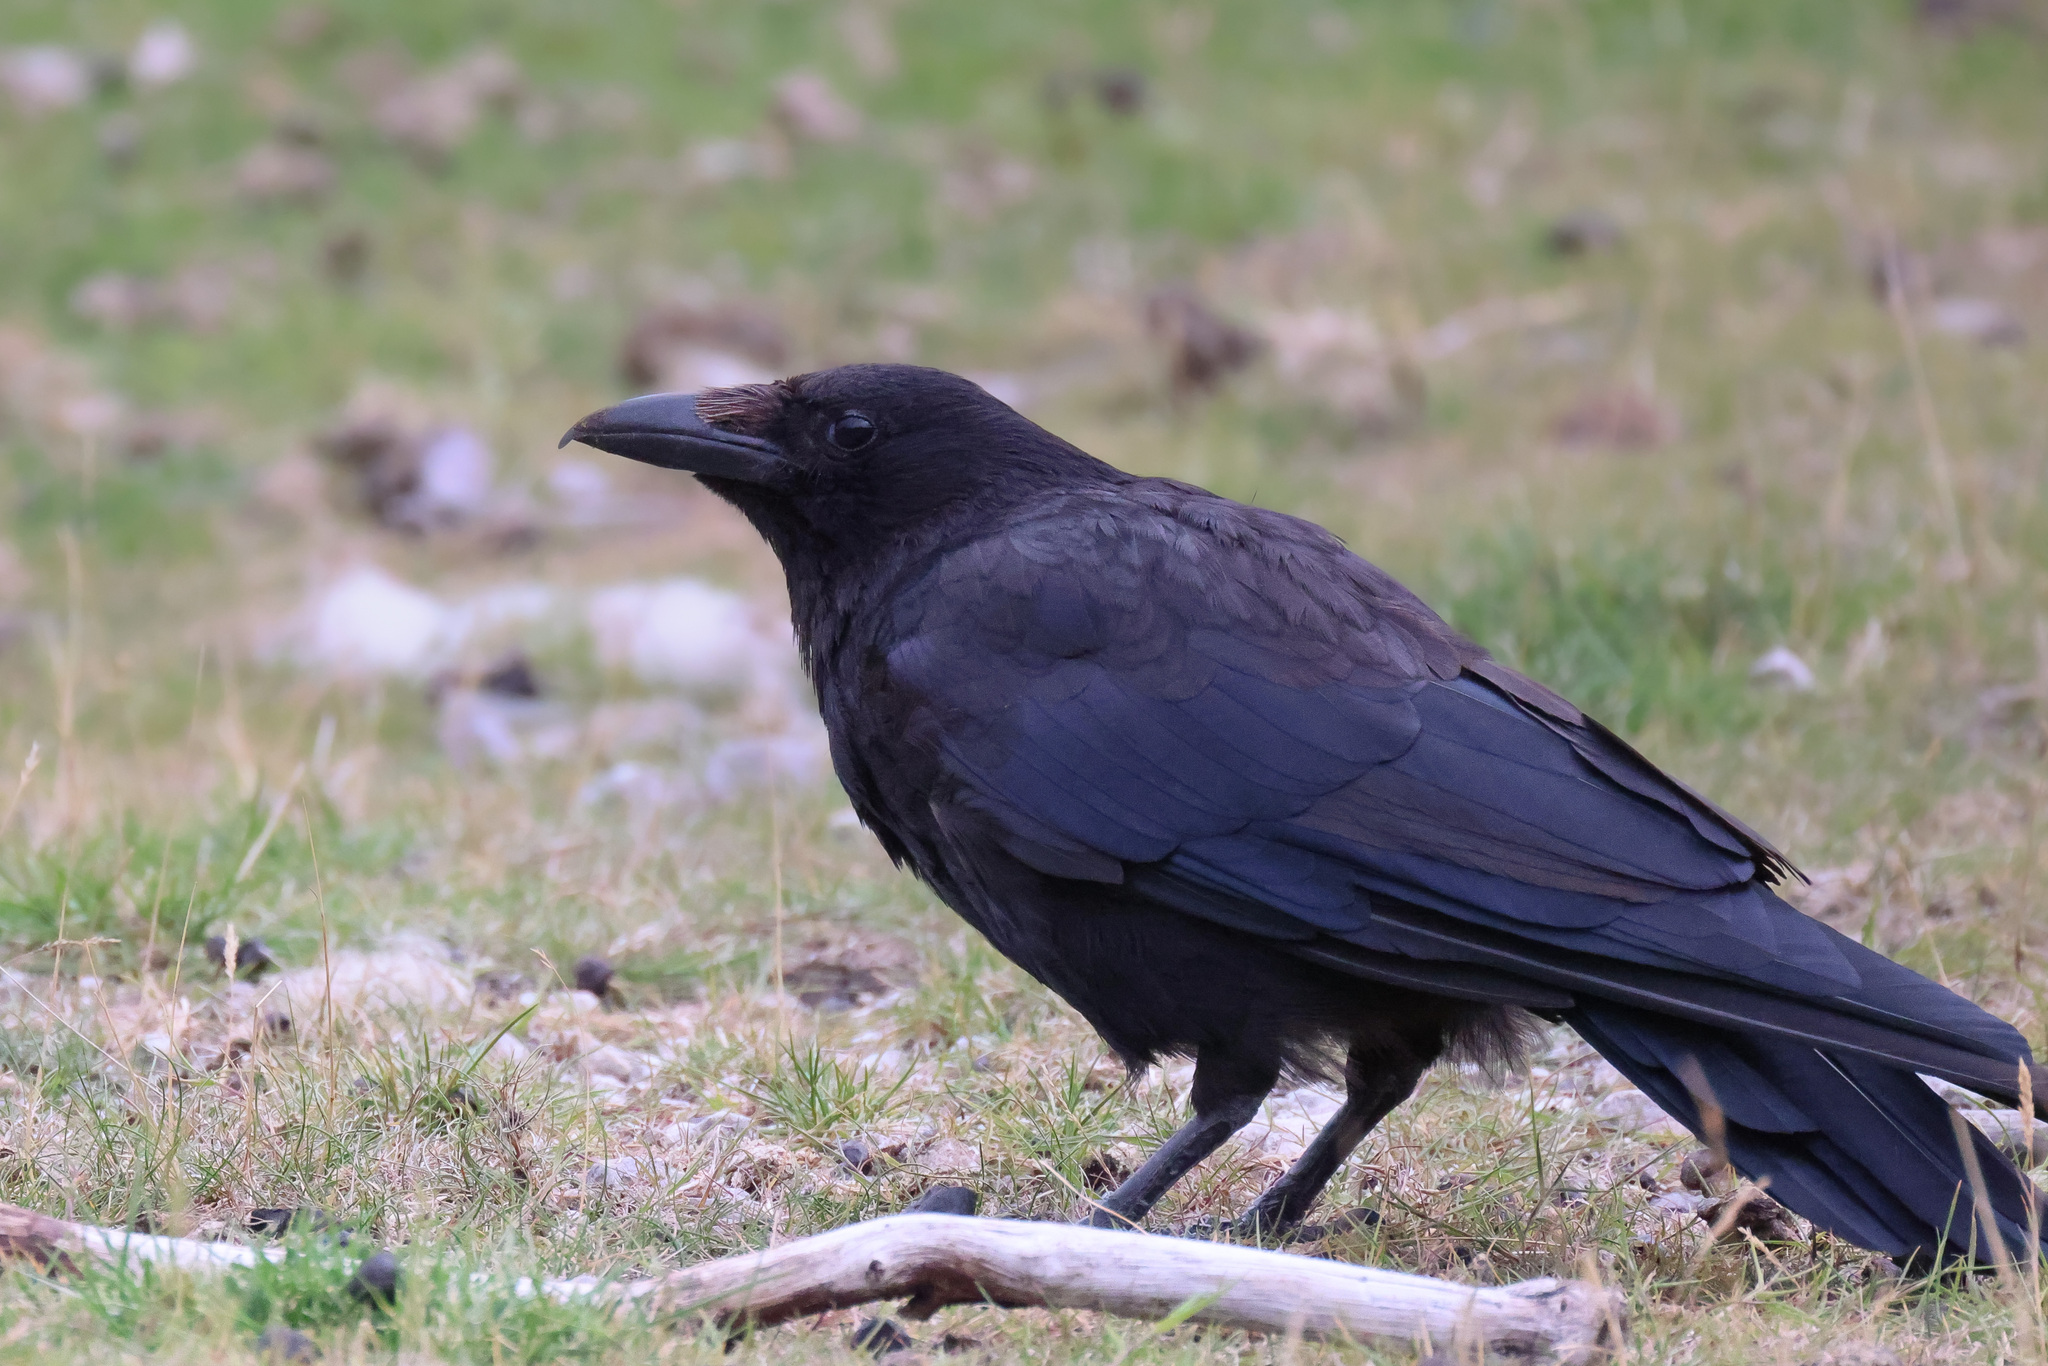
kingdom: Animalia
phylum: Chordata
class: Aves
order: Passeriformes
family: Corvidae
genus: Corvus
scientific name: Corvus corone
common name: Carrion crow
